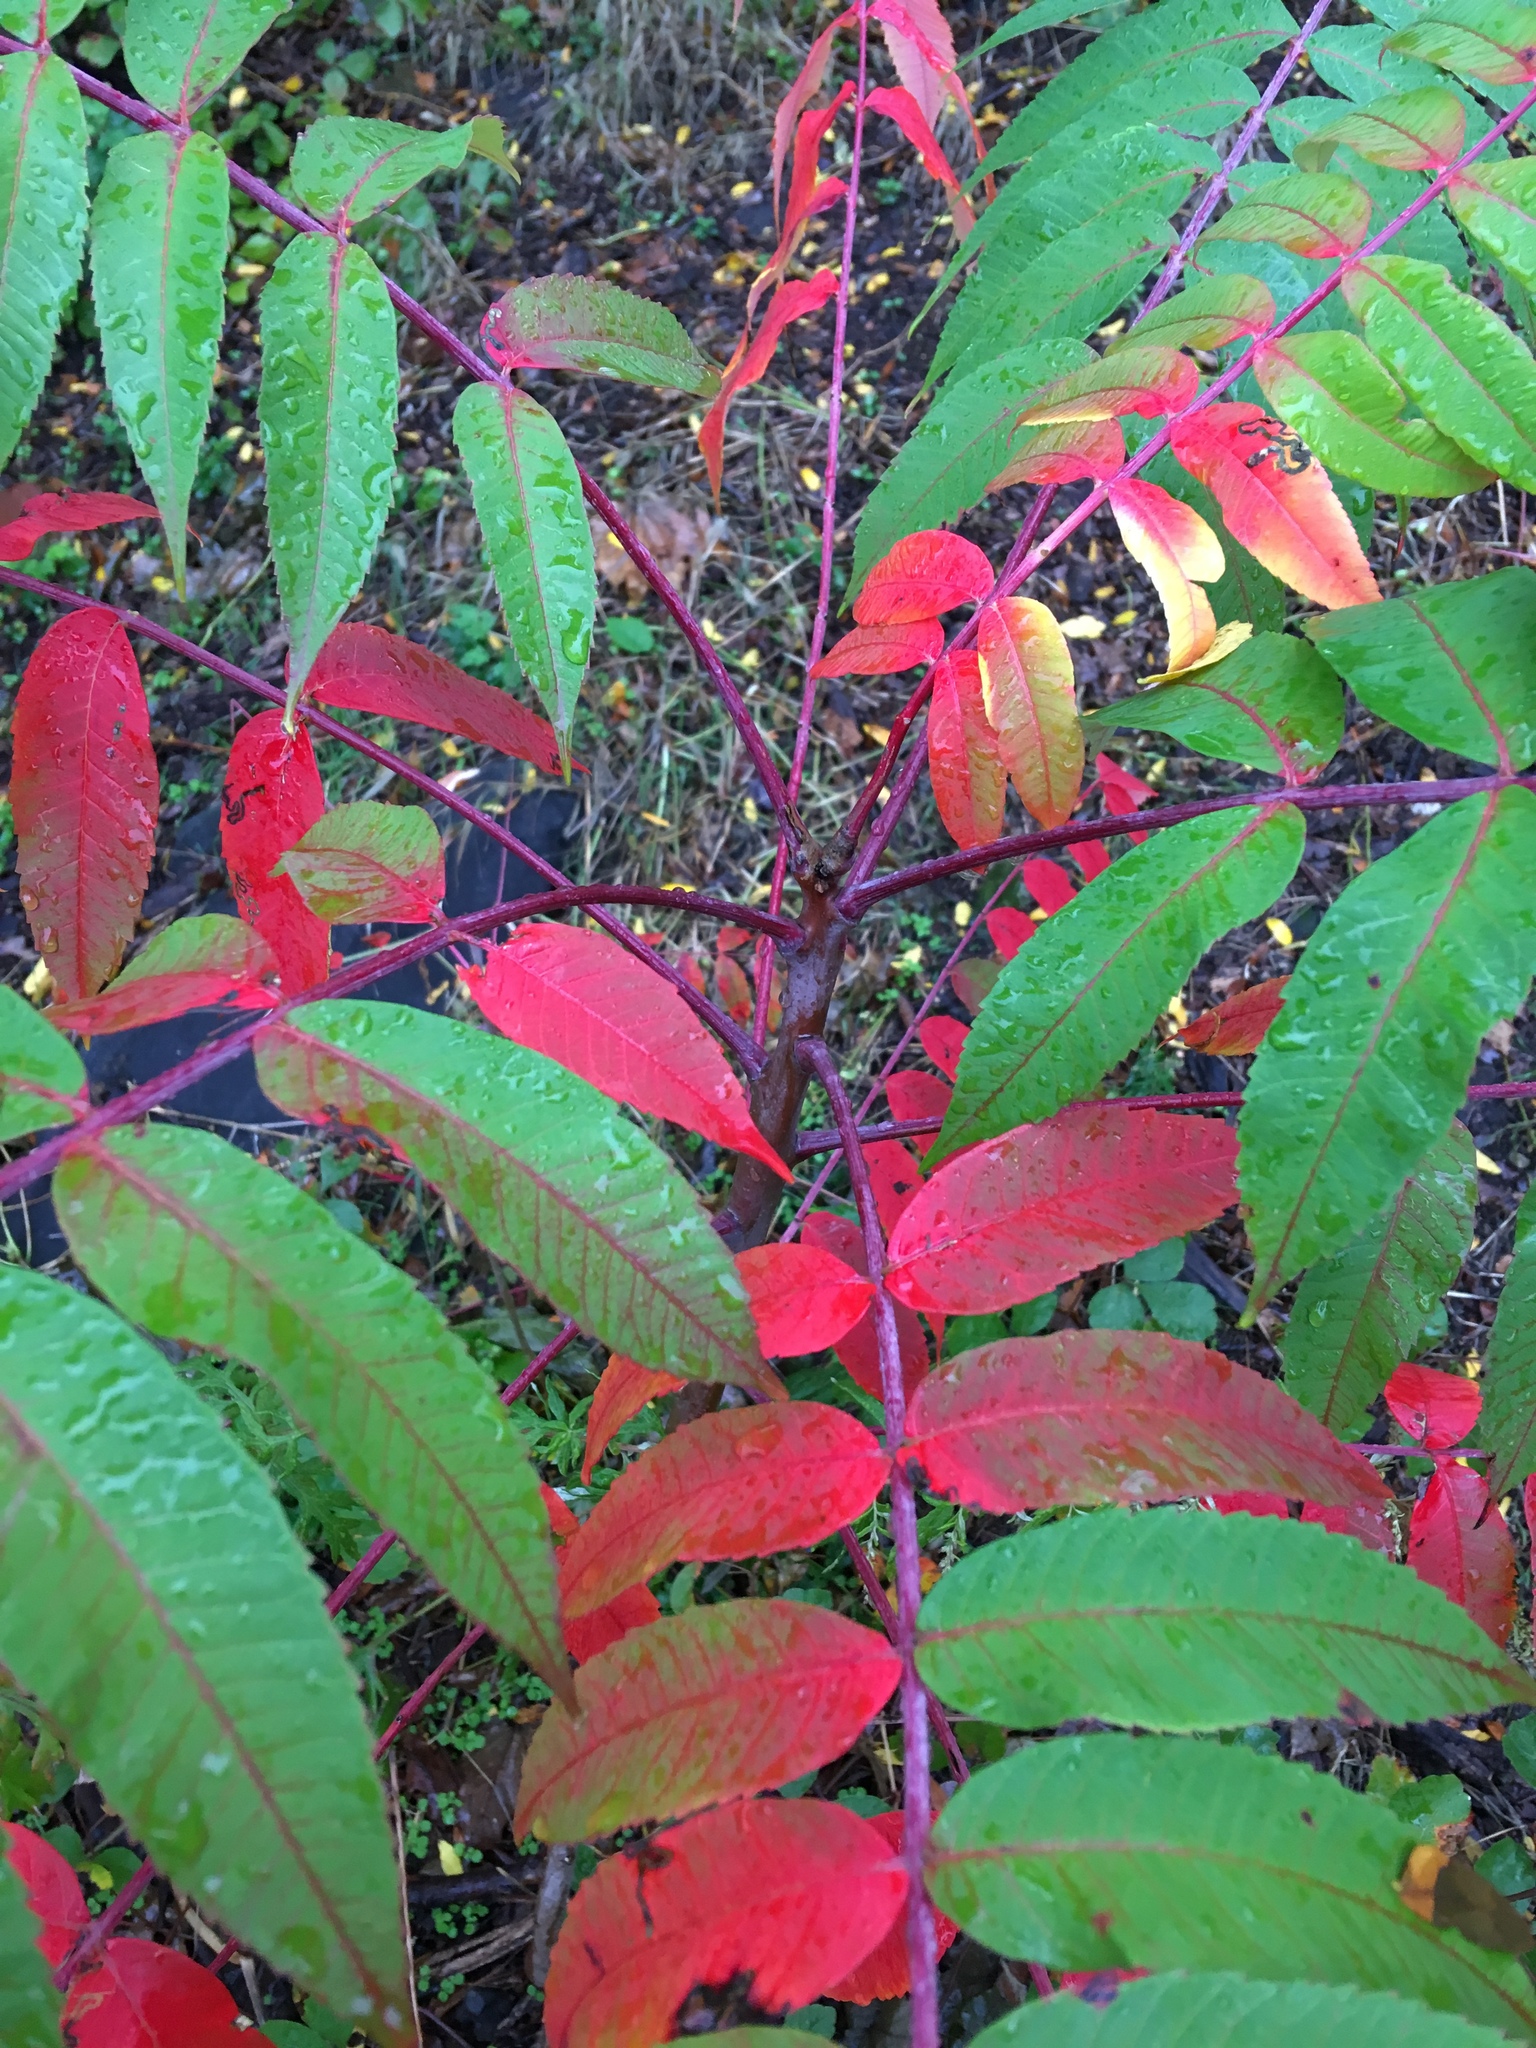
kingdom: Plantae
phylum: Tracheophyta
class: Magnoliopsida
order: Sapindales
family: Anacardiaceae
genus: Rhus
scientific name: Rhus glabra
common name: Scarlet sumac
